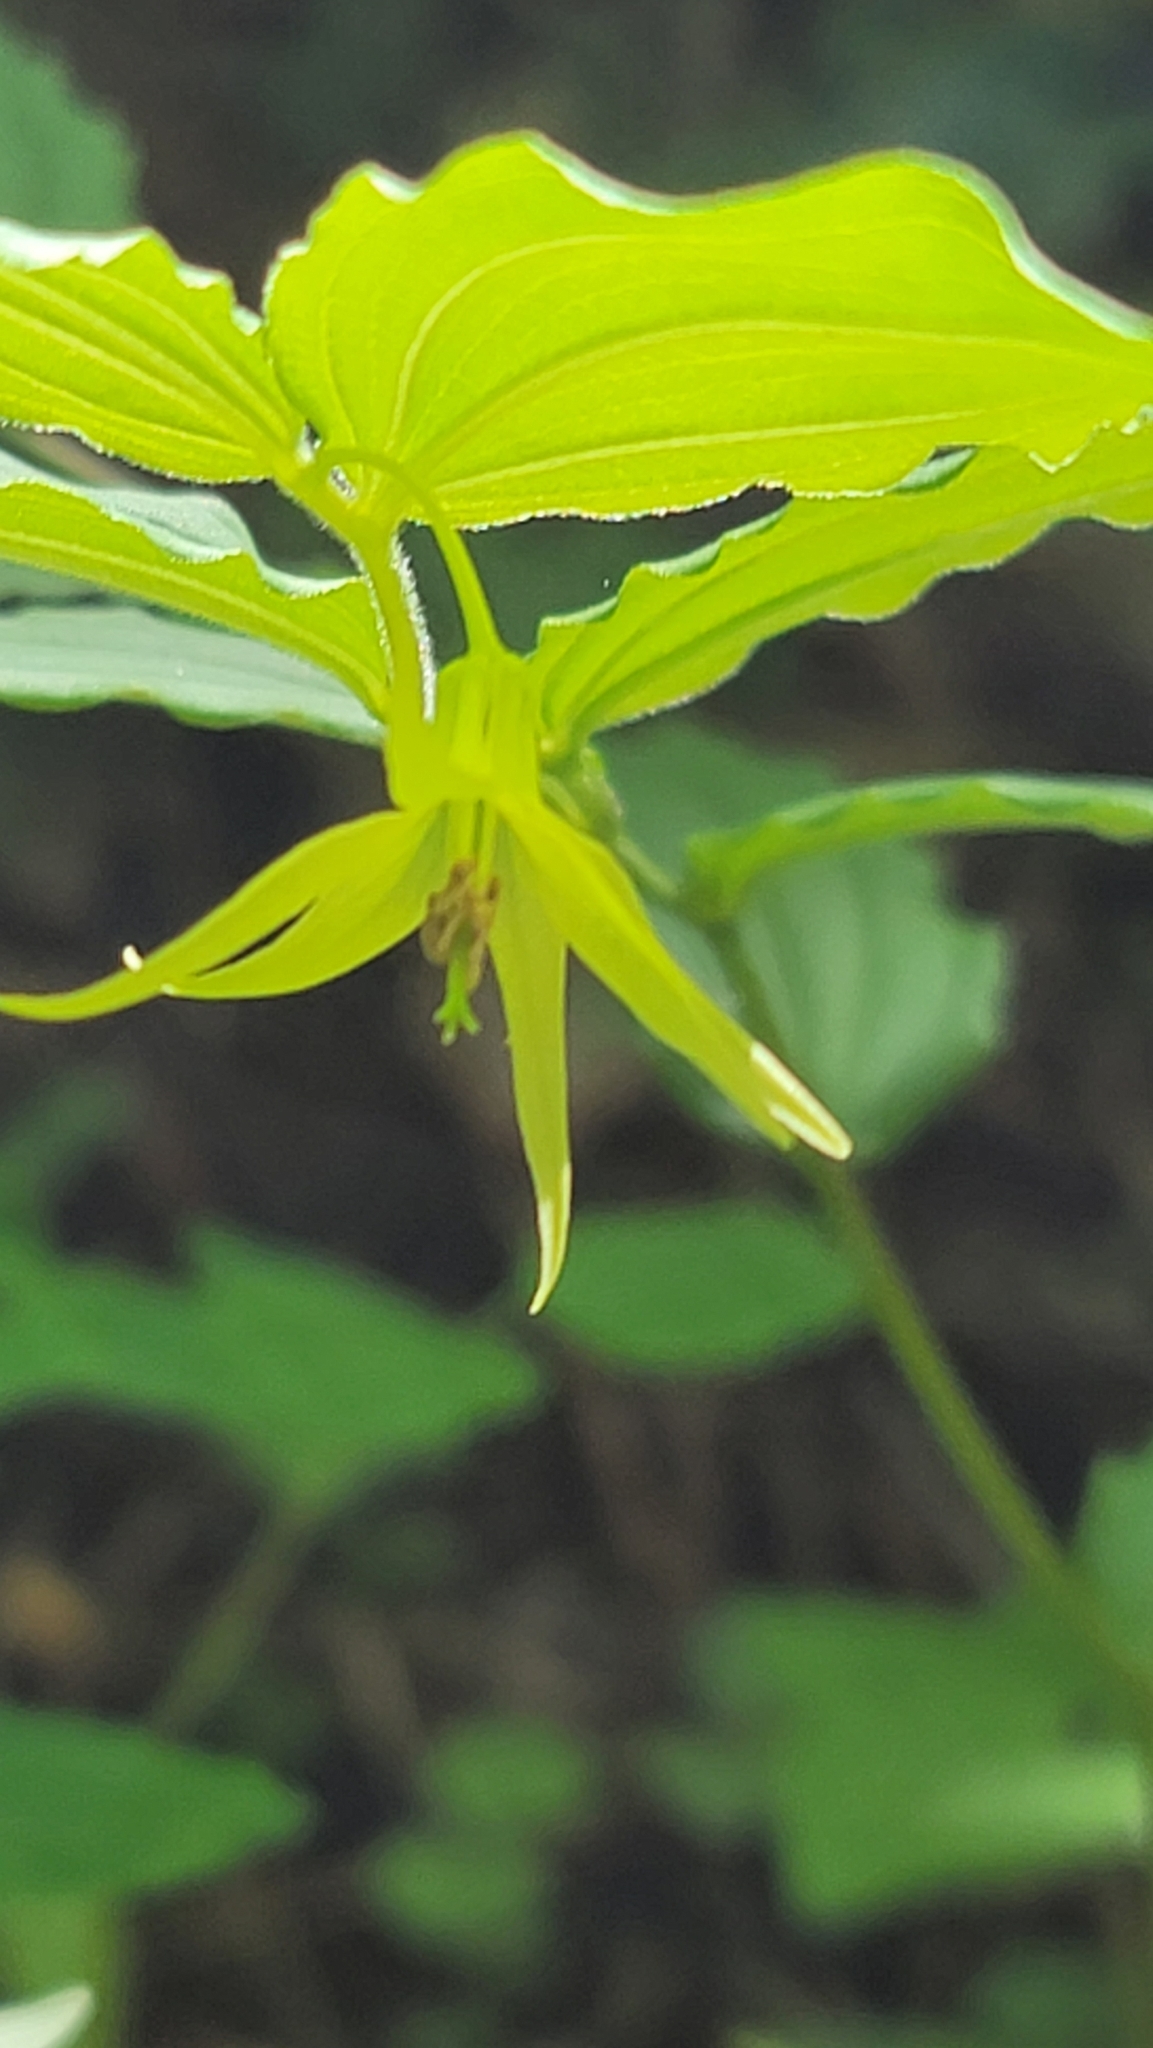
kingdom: Plantae
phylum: Tracheophyta
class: Liliopsida
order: Liliales
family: Liliaceae
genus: Prosartes
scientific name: Prosartes lanuginosa
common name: Hairy mandarin
